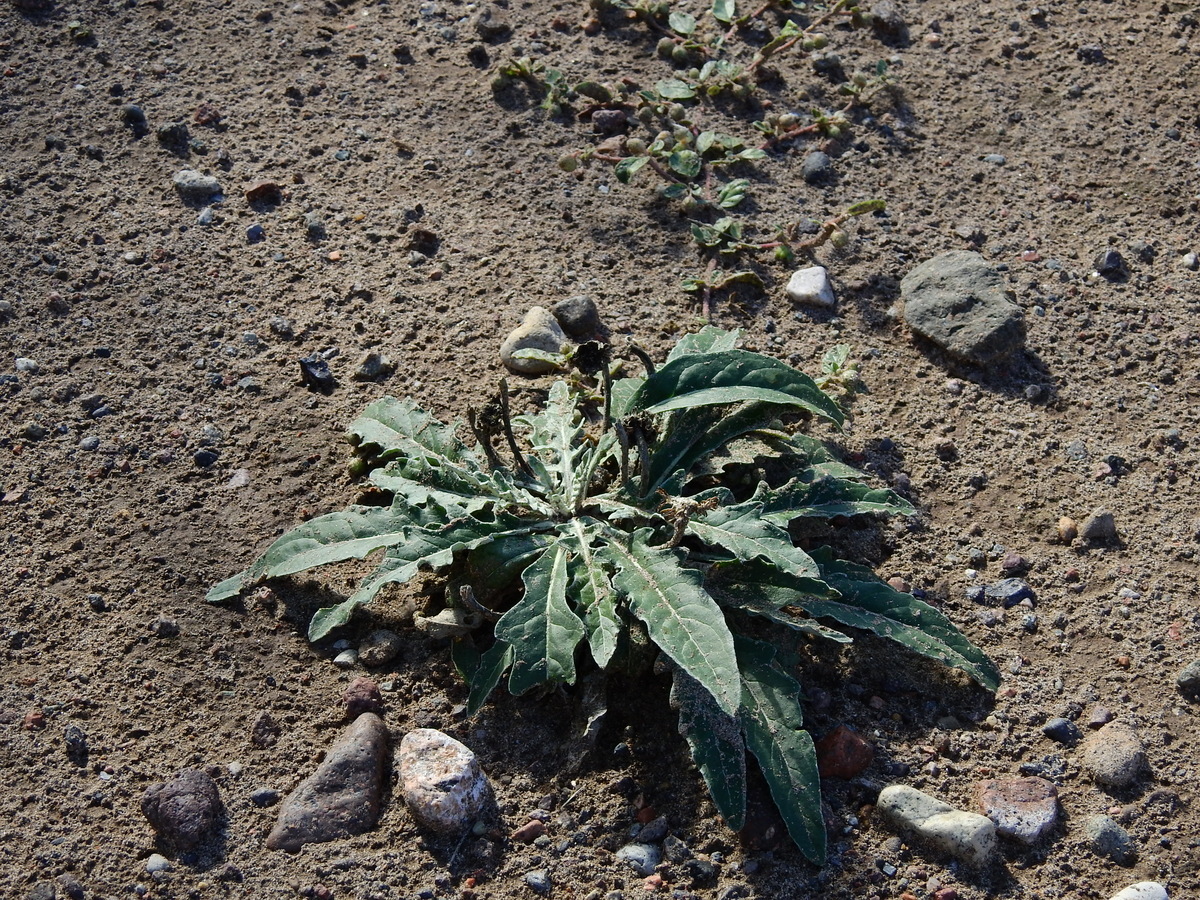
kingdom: Plantae
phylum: Tracheophyta
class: Magnoliopsida
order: Asterales
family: Asteraceae
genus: Trichocline
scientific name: Trichocline sinuata
